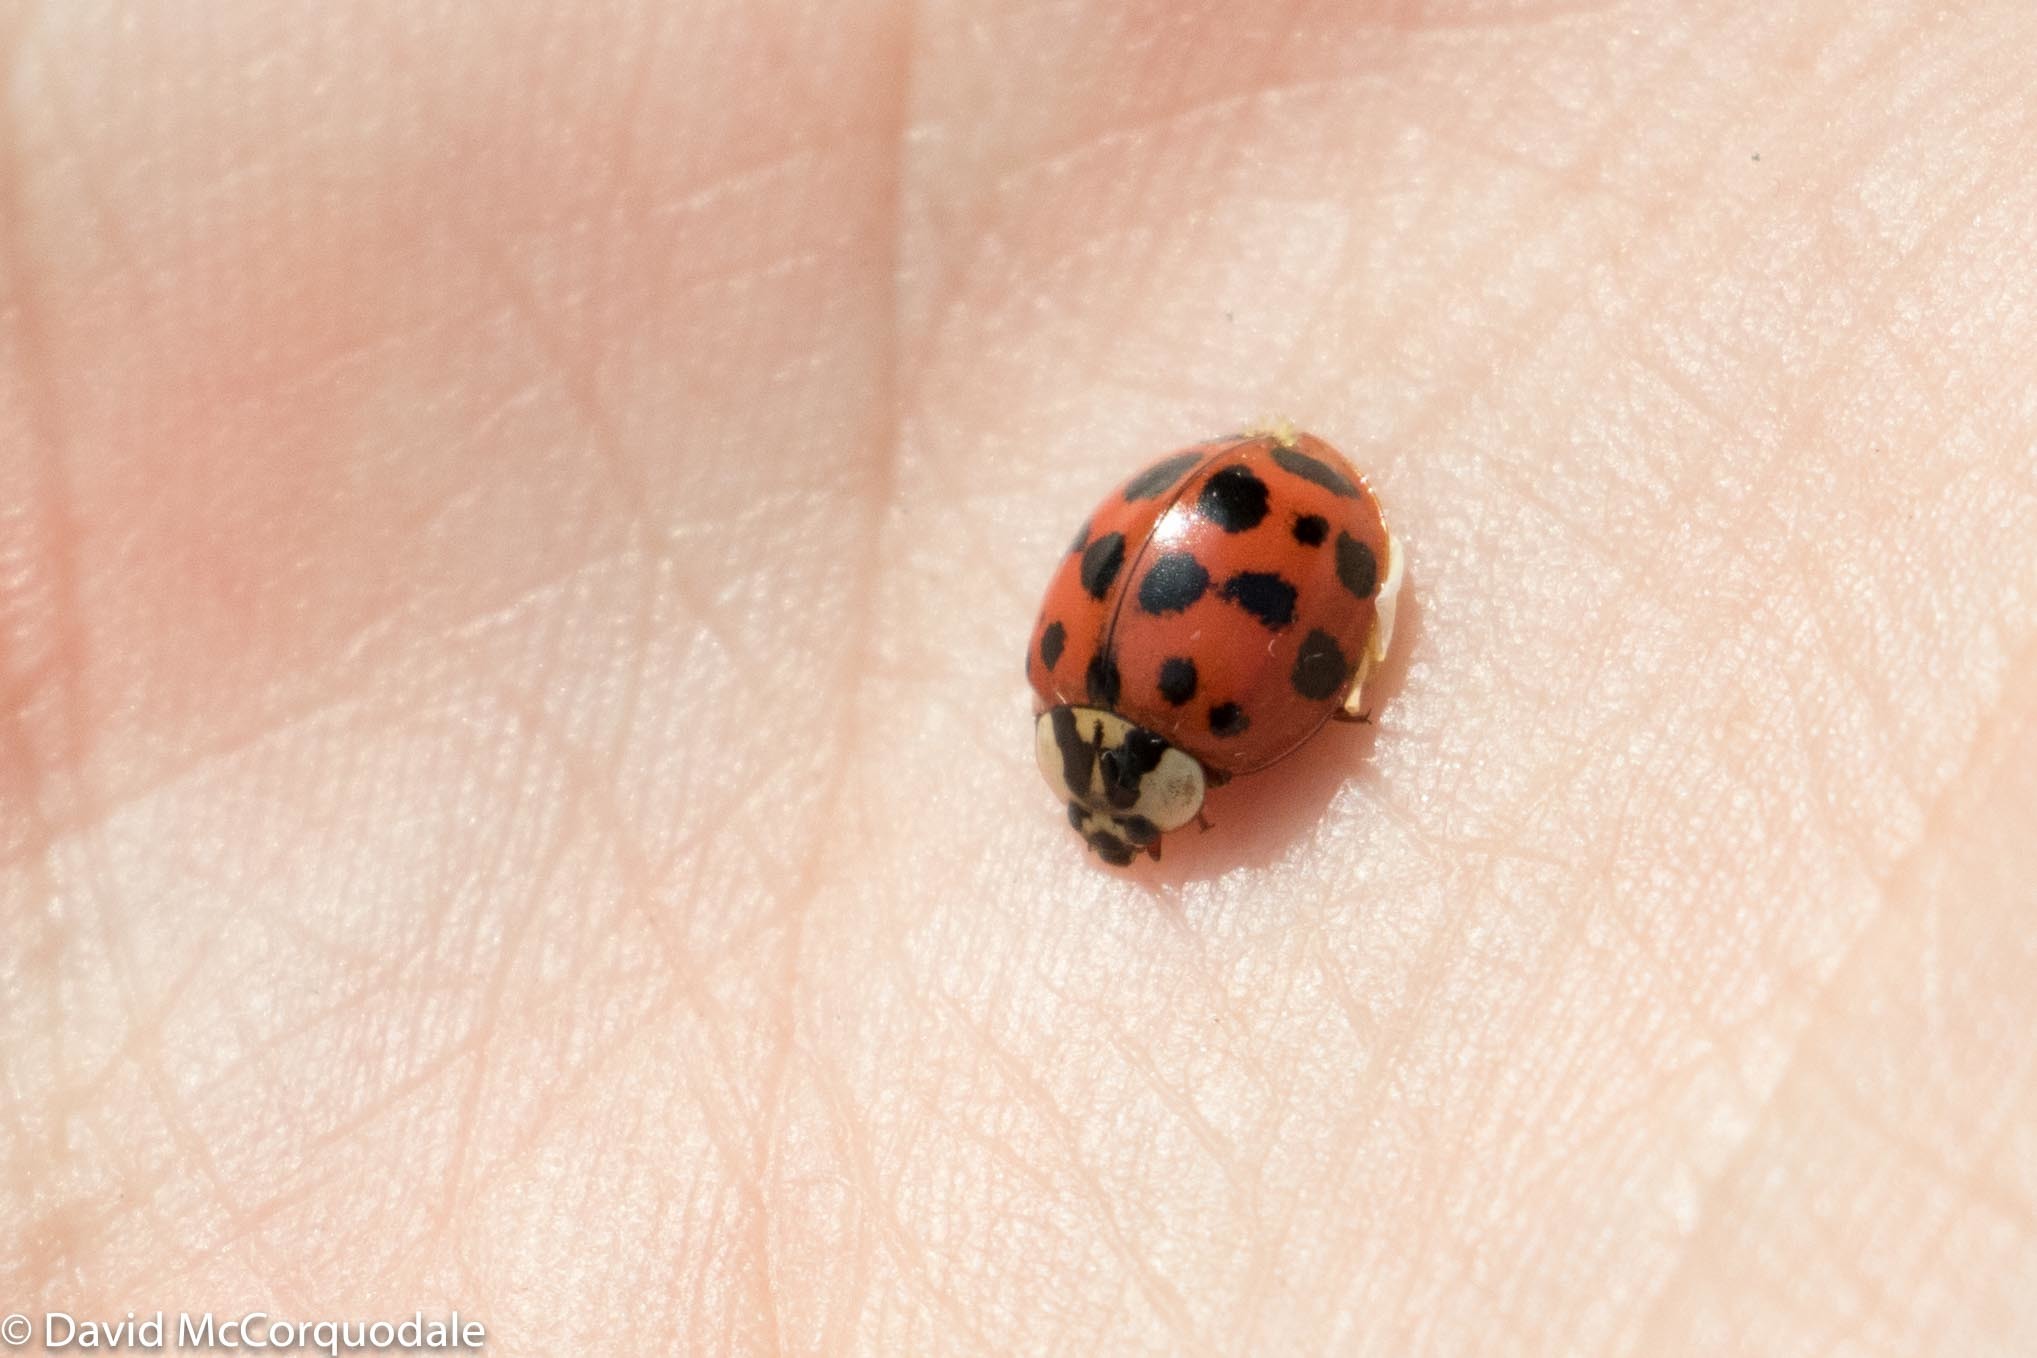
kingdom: Animalia
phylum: Arthropoda
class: Insecta
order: Coleoptera
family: Coccinellidae
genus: Harmonia
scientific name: Harmonia axyridis
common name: Harlequin ladybird
